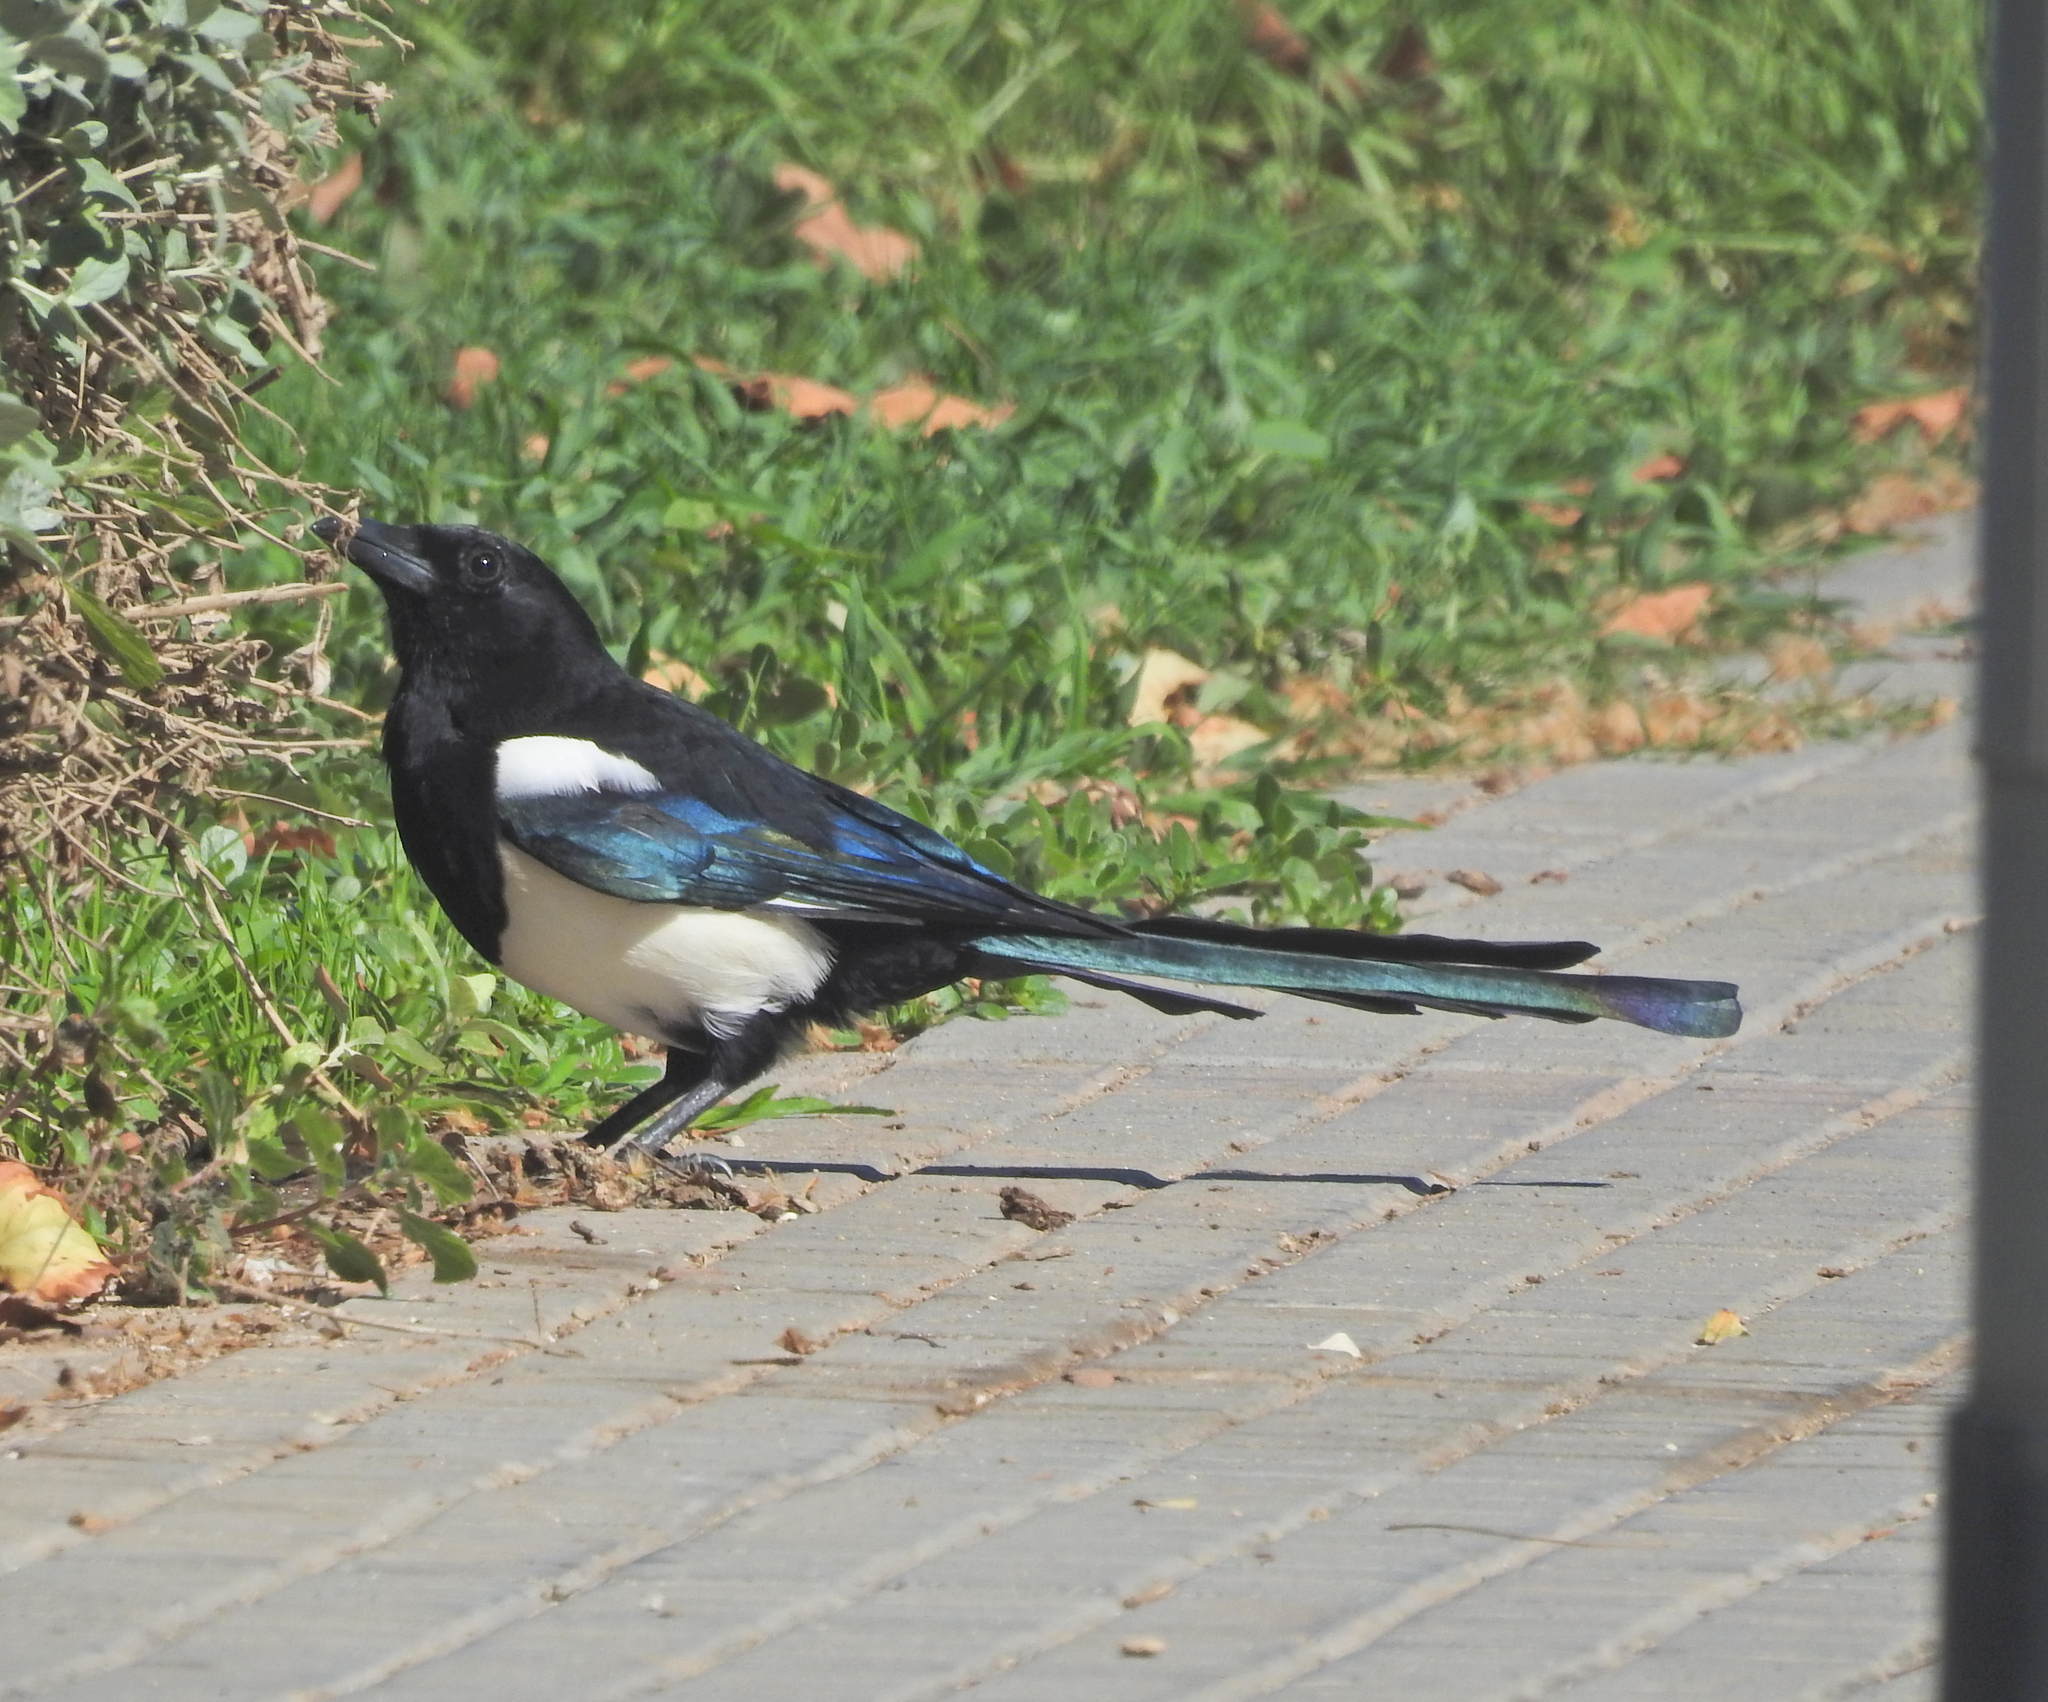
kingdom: Animalia
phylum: Chordata
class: Aves
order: Passeriformes
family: Corvidae
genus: Pica
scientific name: Pica pica
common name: Eurasian magpie
